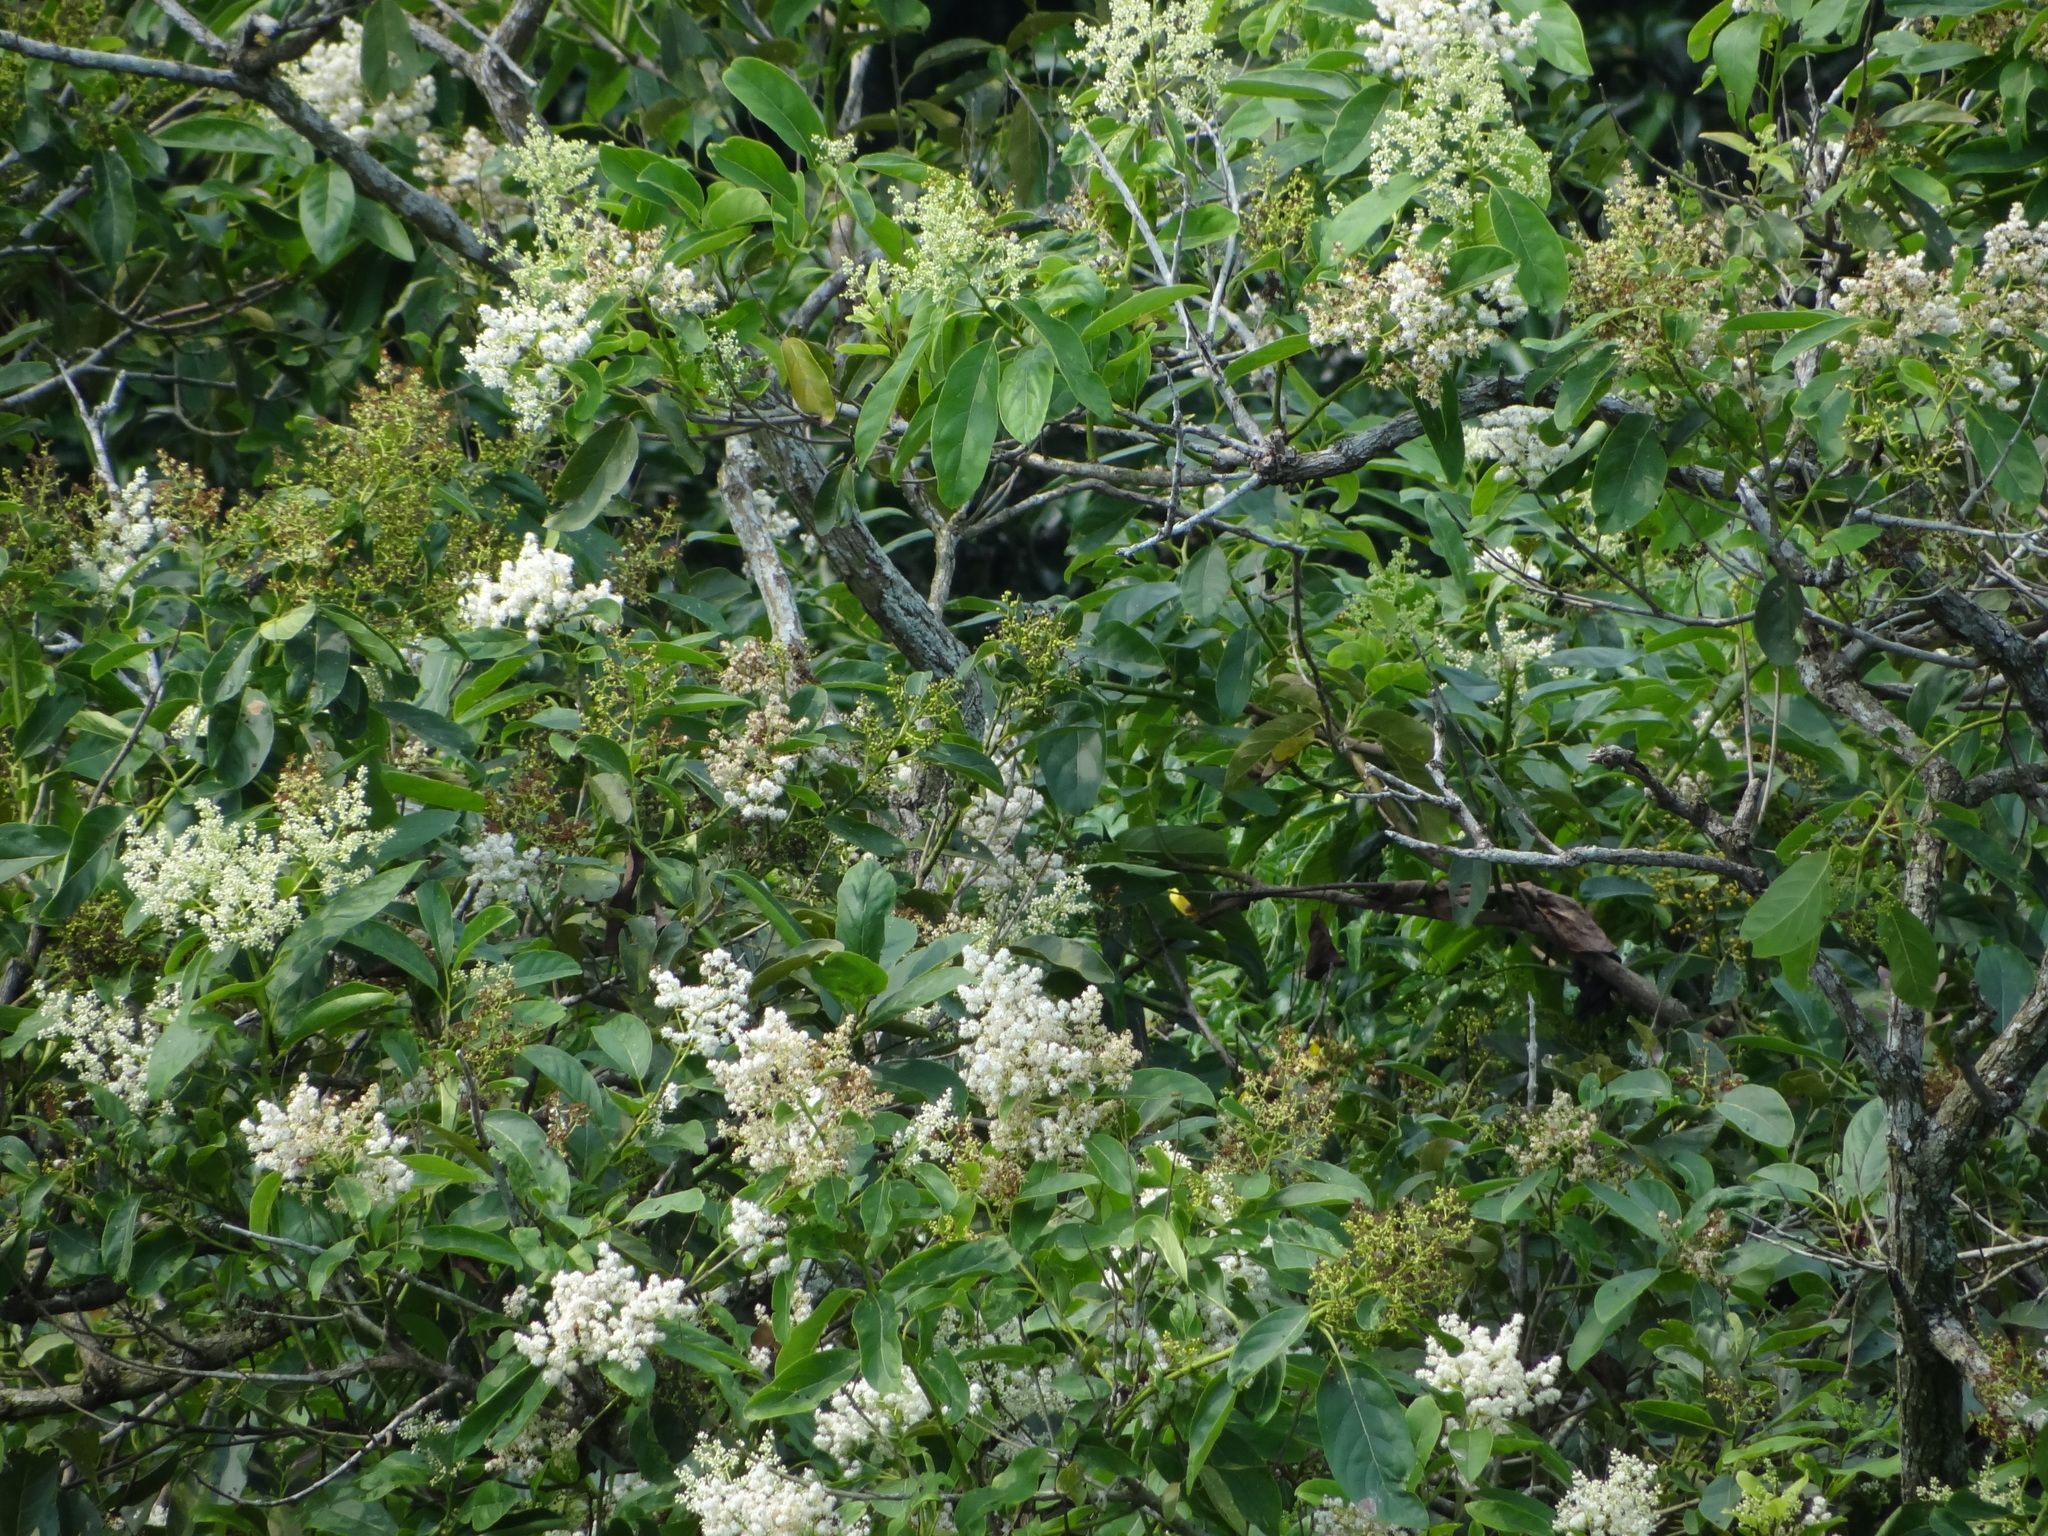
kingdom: Plantae
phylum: Tracheophyta
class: Magnoliopsida
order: Boraginales
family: Ehretiaceae
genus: Ehretia
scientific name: Ehretia acuminata
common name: Kodo wood
